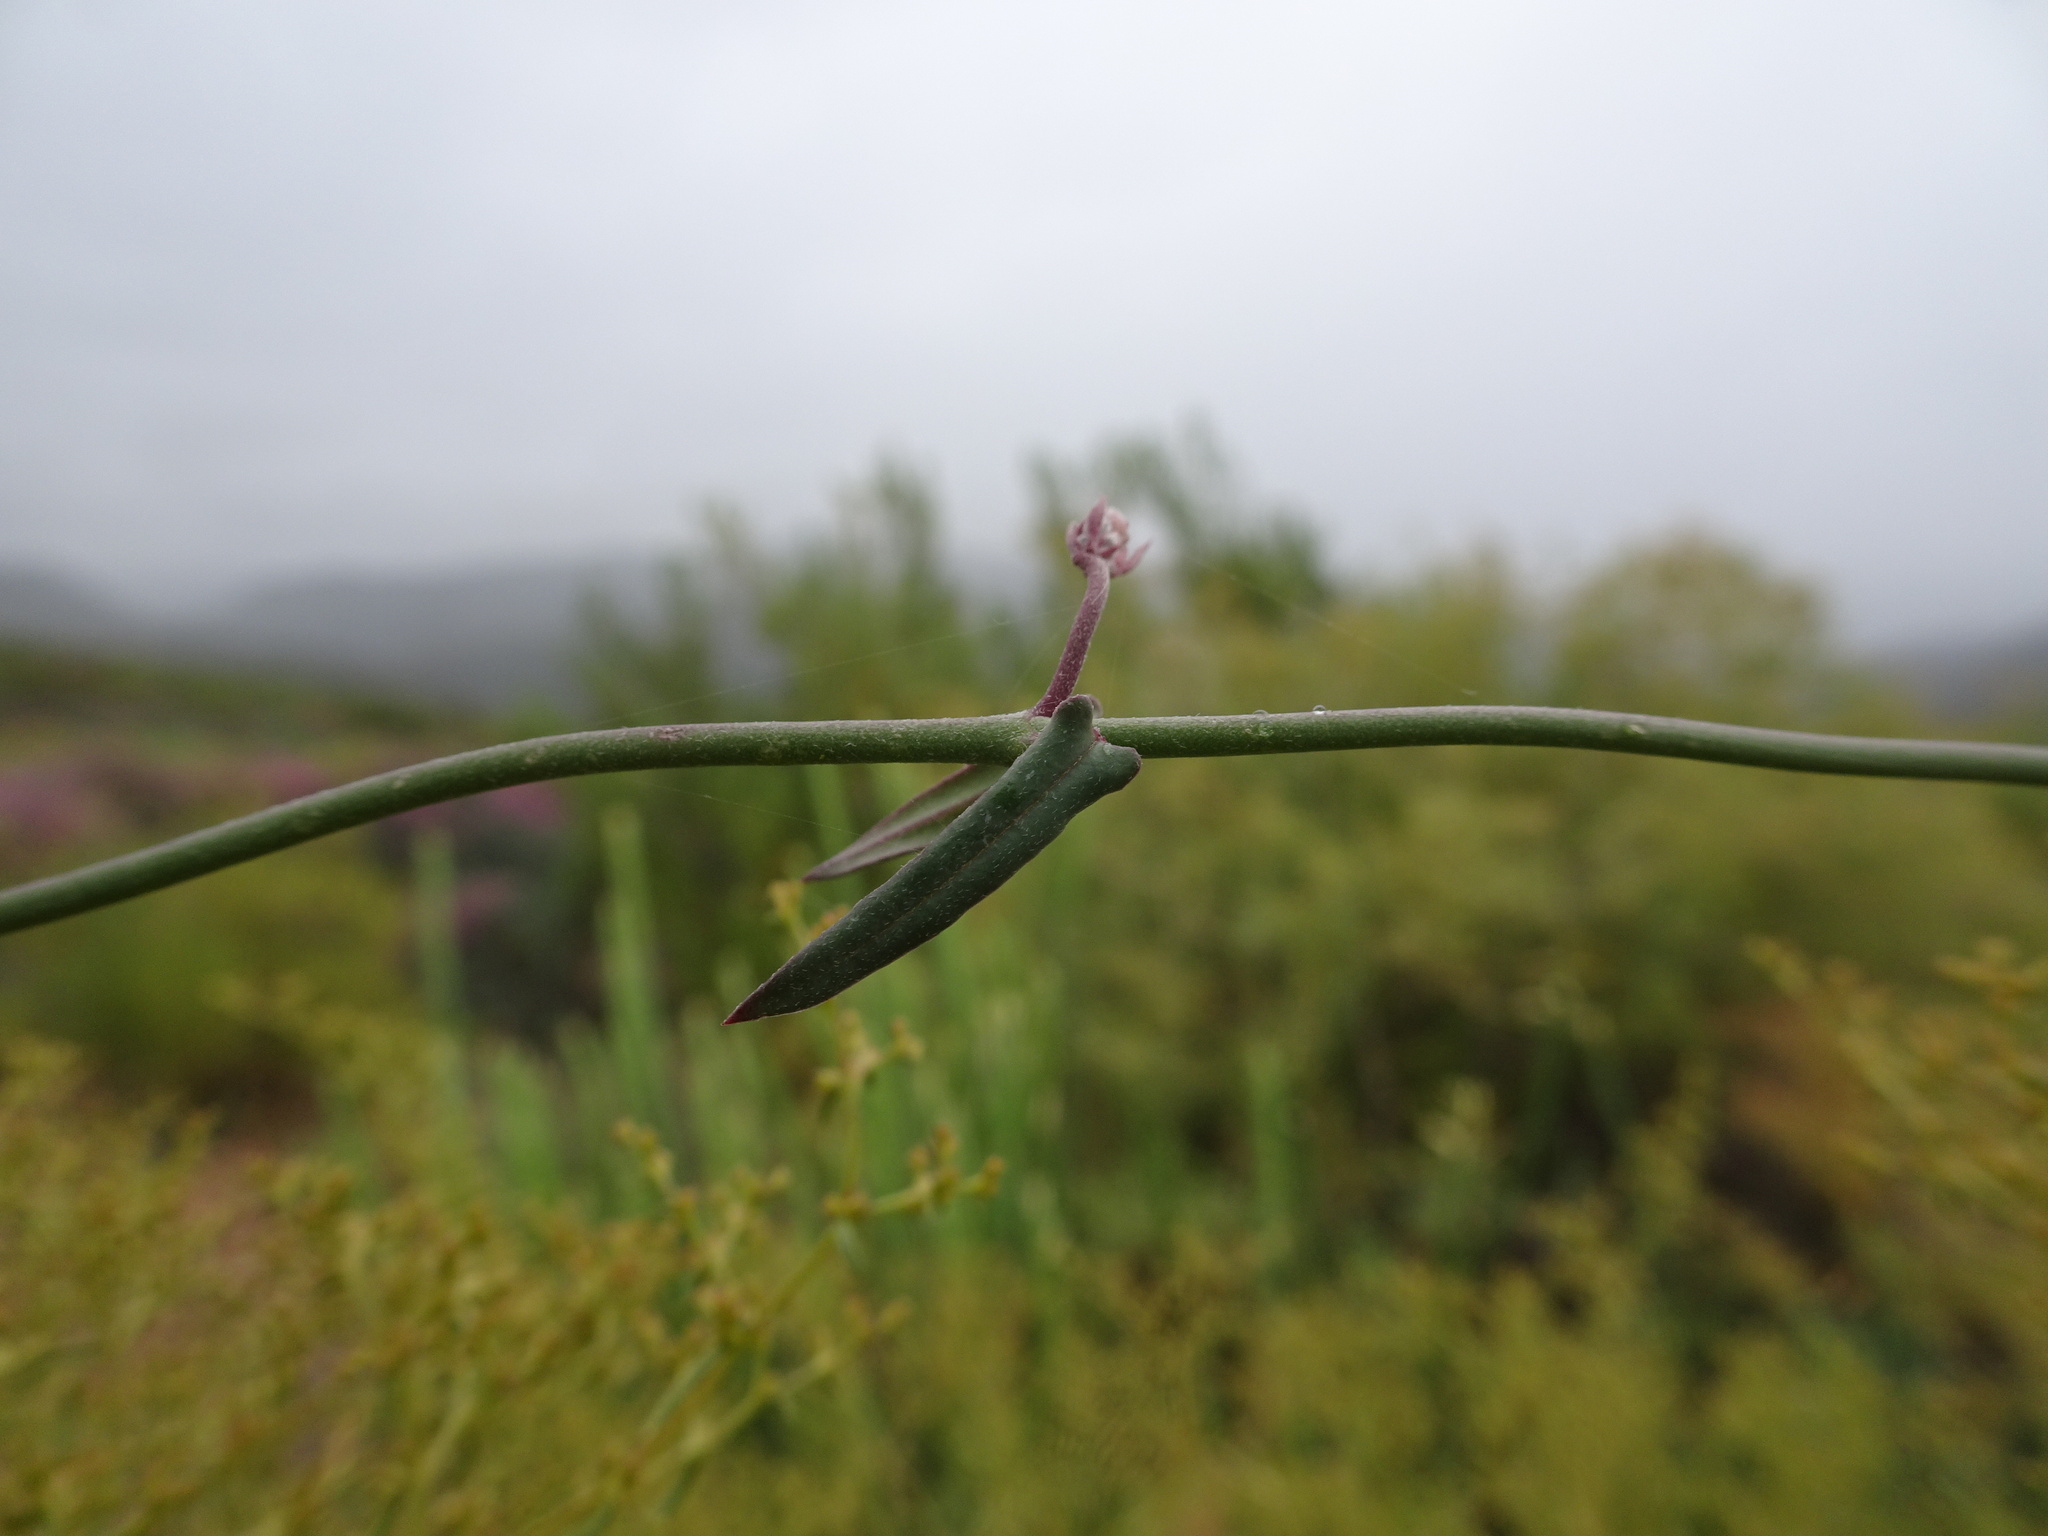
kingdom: Plantae
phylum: Tracheophyta
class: Magnoliopsida
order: Gentianales
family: Apocynaceae
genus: Microloma
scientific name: Microloma sagittatum
